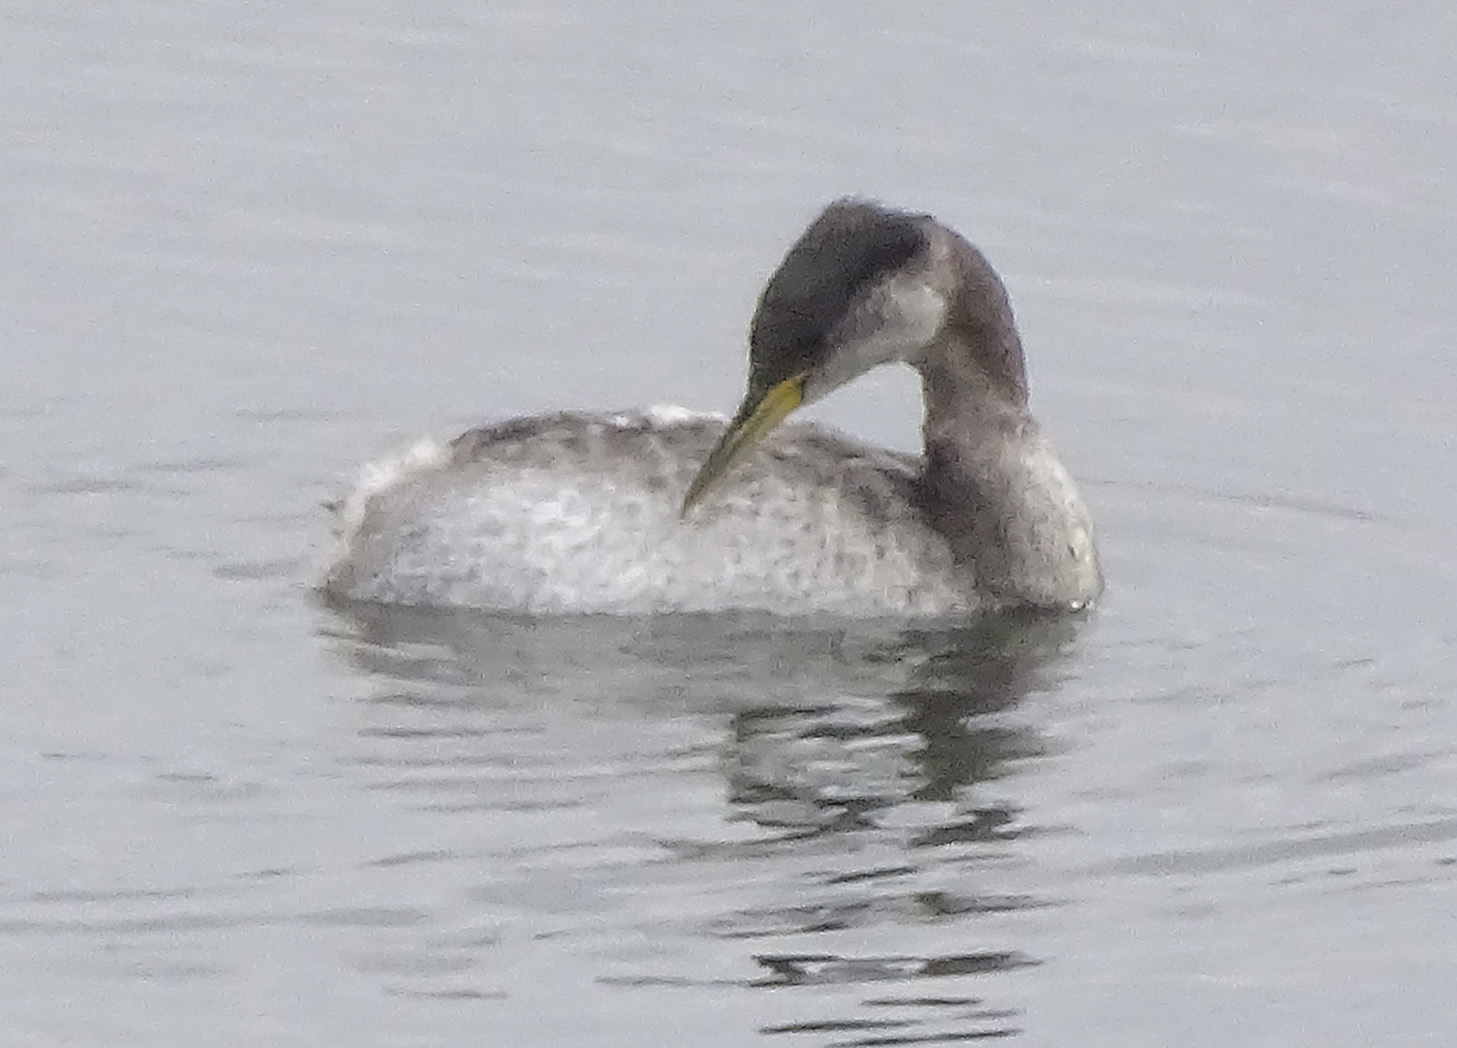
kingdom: Animalia
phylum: Chordata
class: Aves
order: Podicipediformes
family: Podicipedidae
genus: Podiceps
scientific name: Podiceps grisegena
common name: Red-necked grebe
